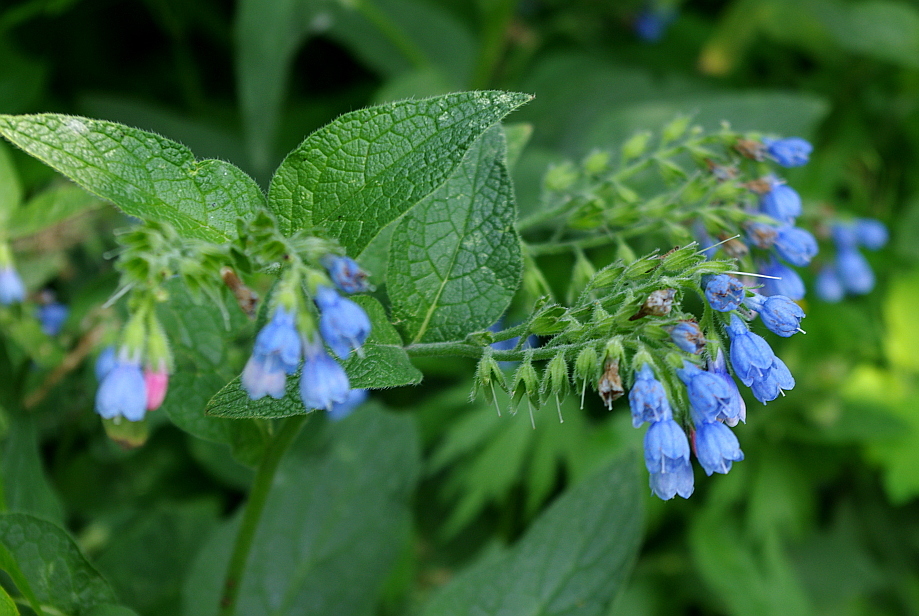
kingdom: Plantae
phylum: Tracheophyta
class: Magnoliopsida
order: Boraginales
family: Boraginaceae
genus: Symphytum
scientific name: Symphytum caucasicum
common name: Caucasian comfrey
